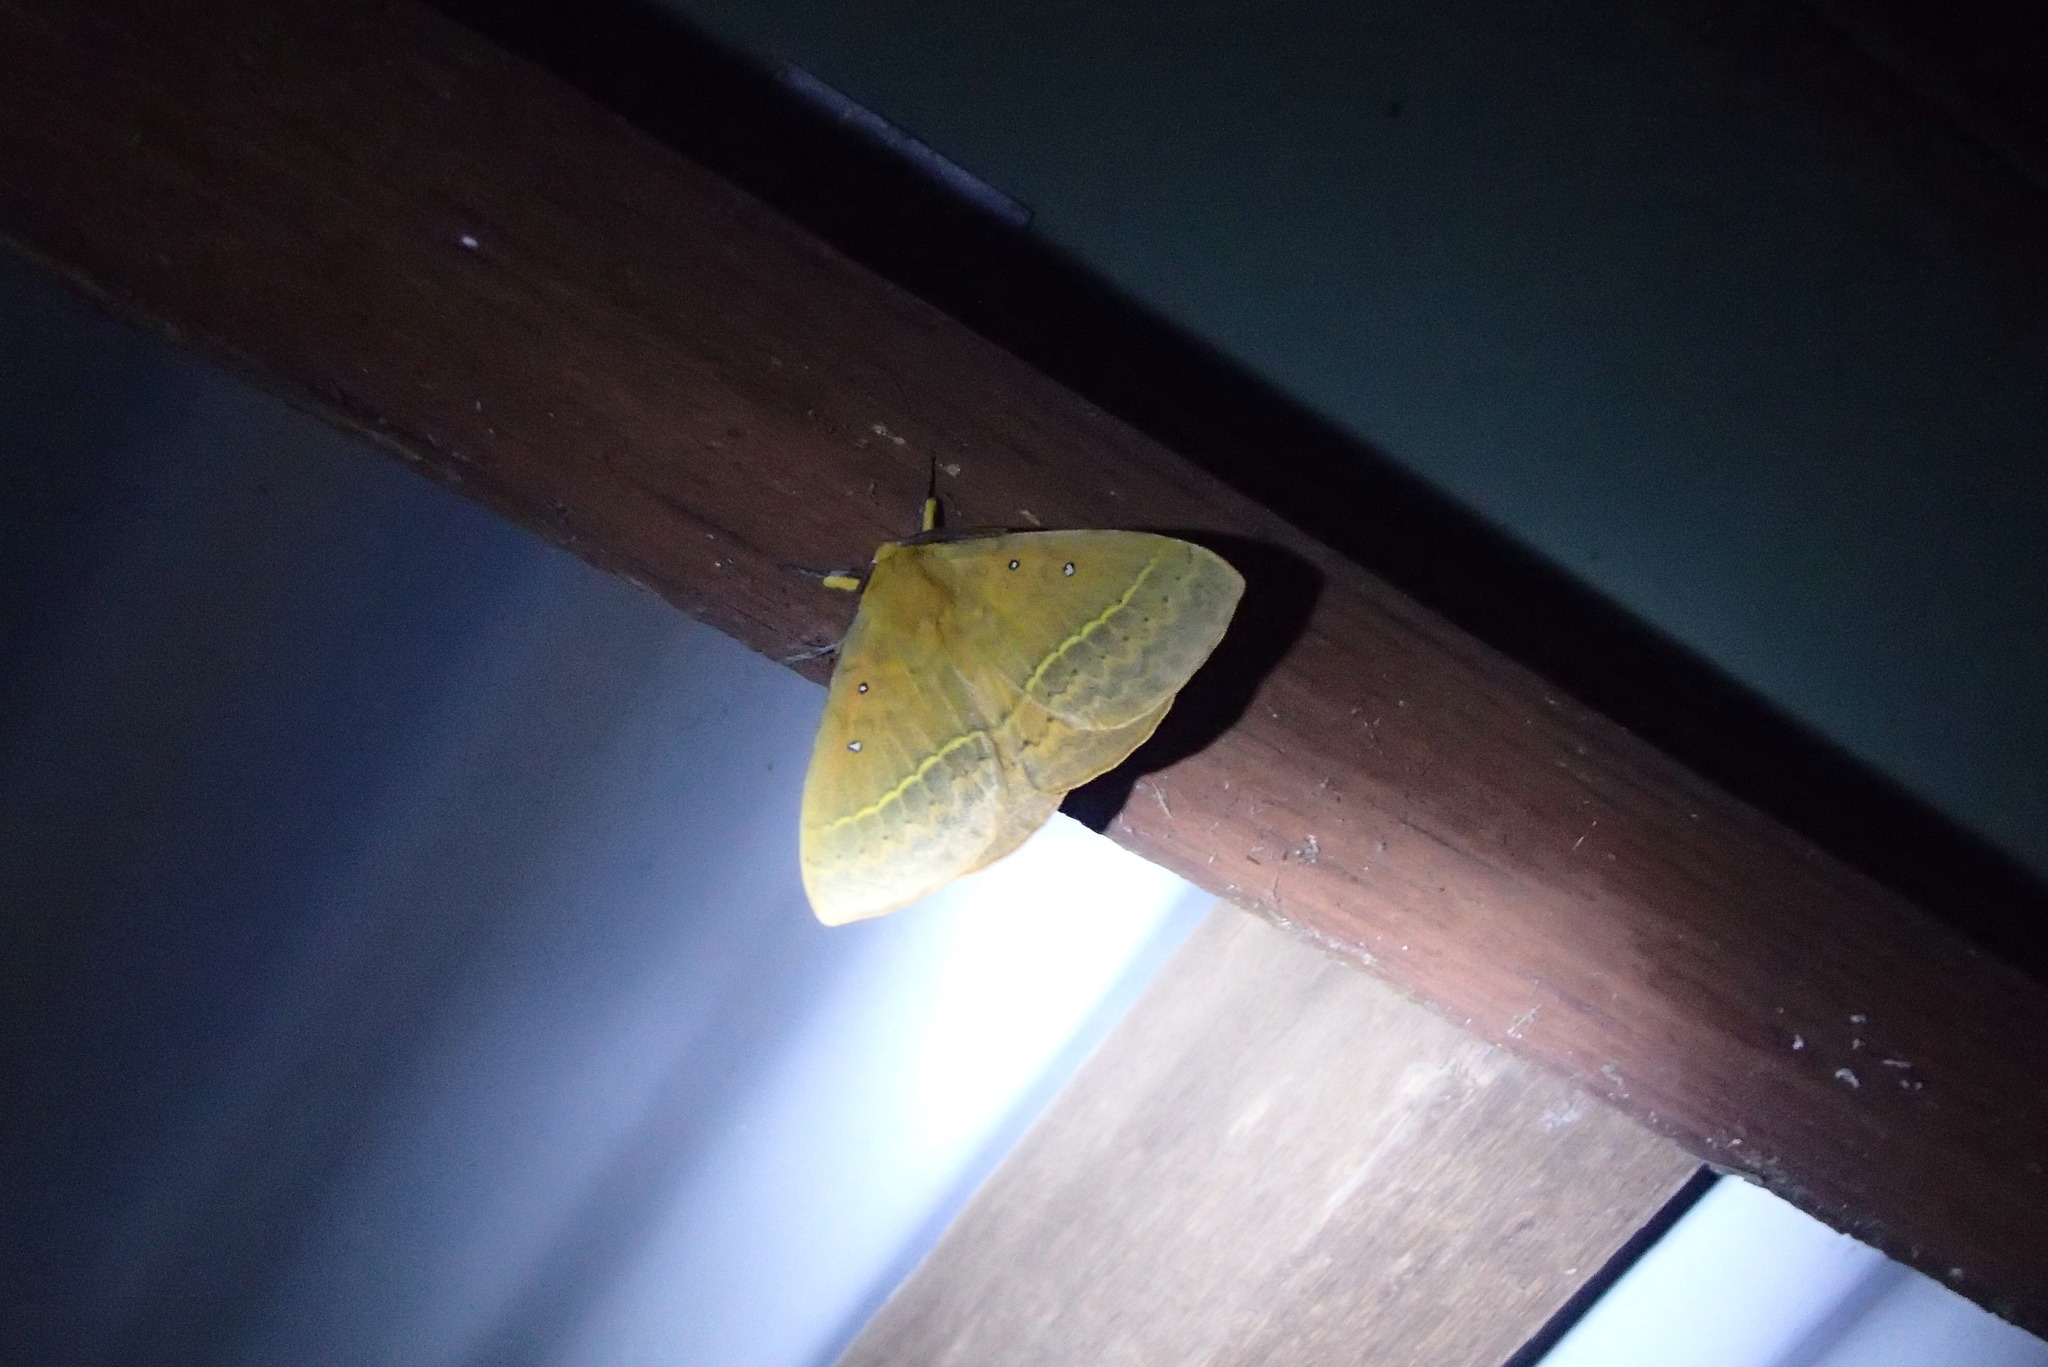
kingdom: Animalia
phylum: Arthropoda
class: Insecta
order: Lepidoptera
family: Anthelidae
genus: Anthela
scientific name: Anthela nicothoe
